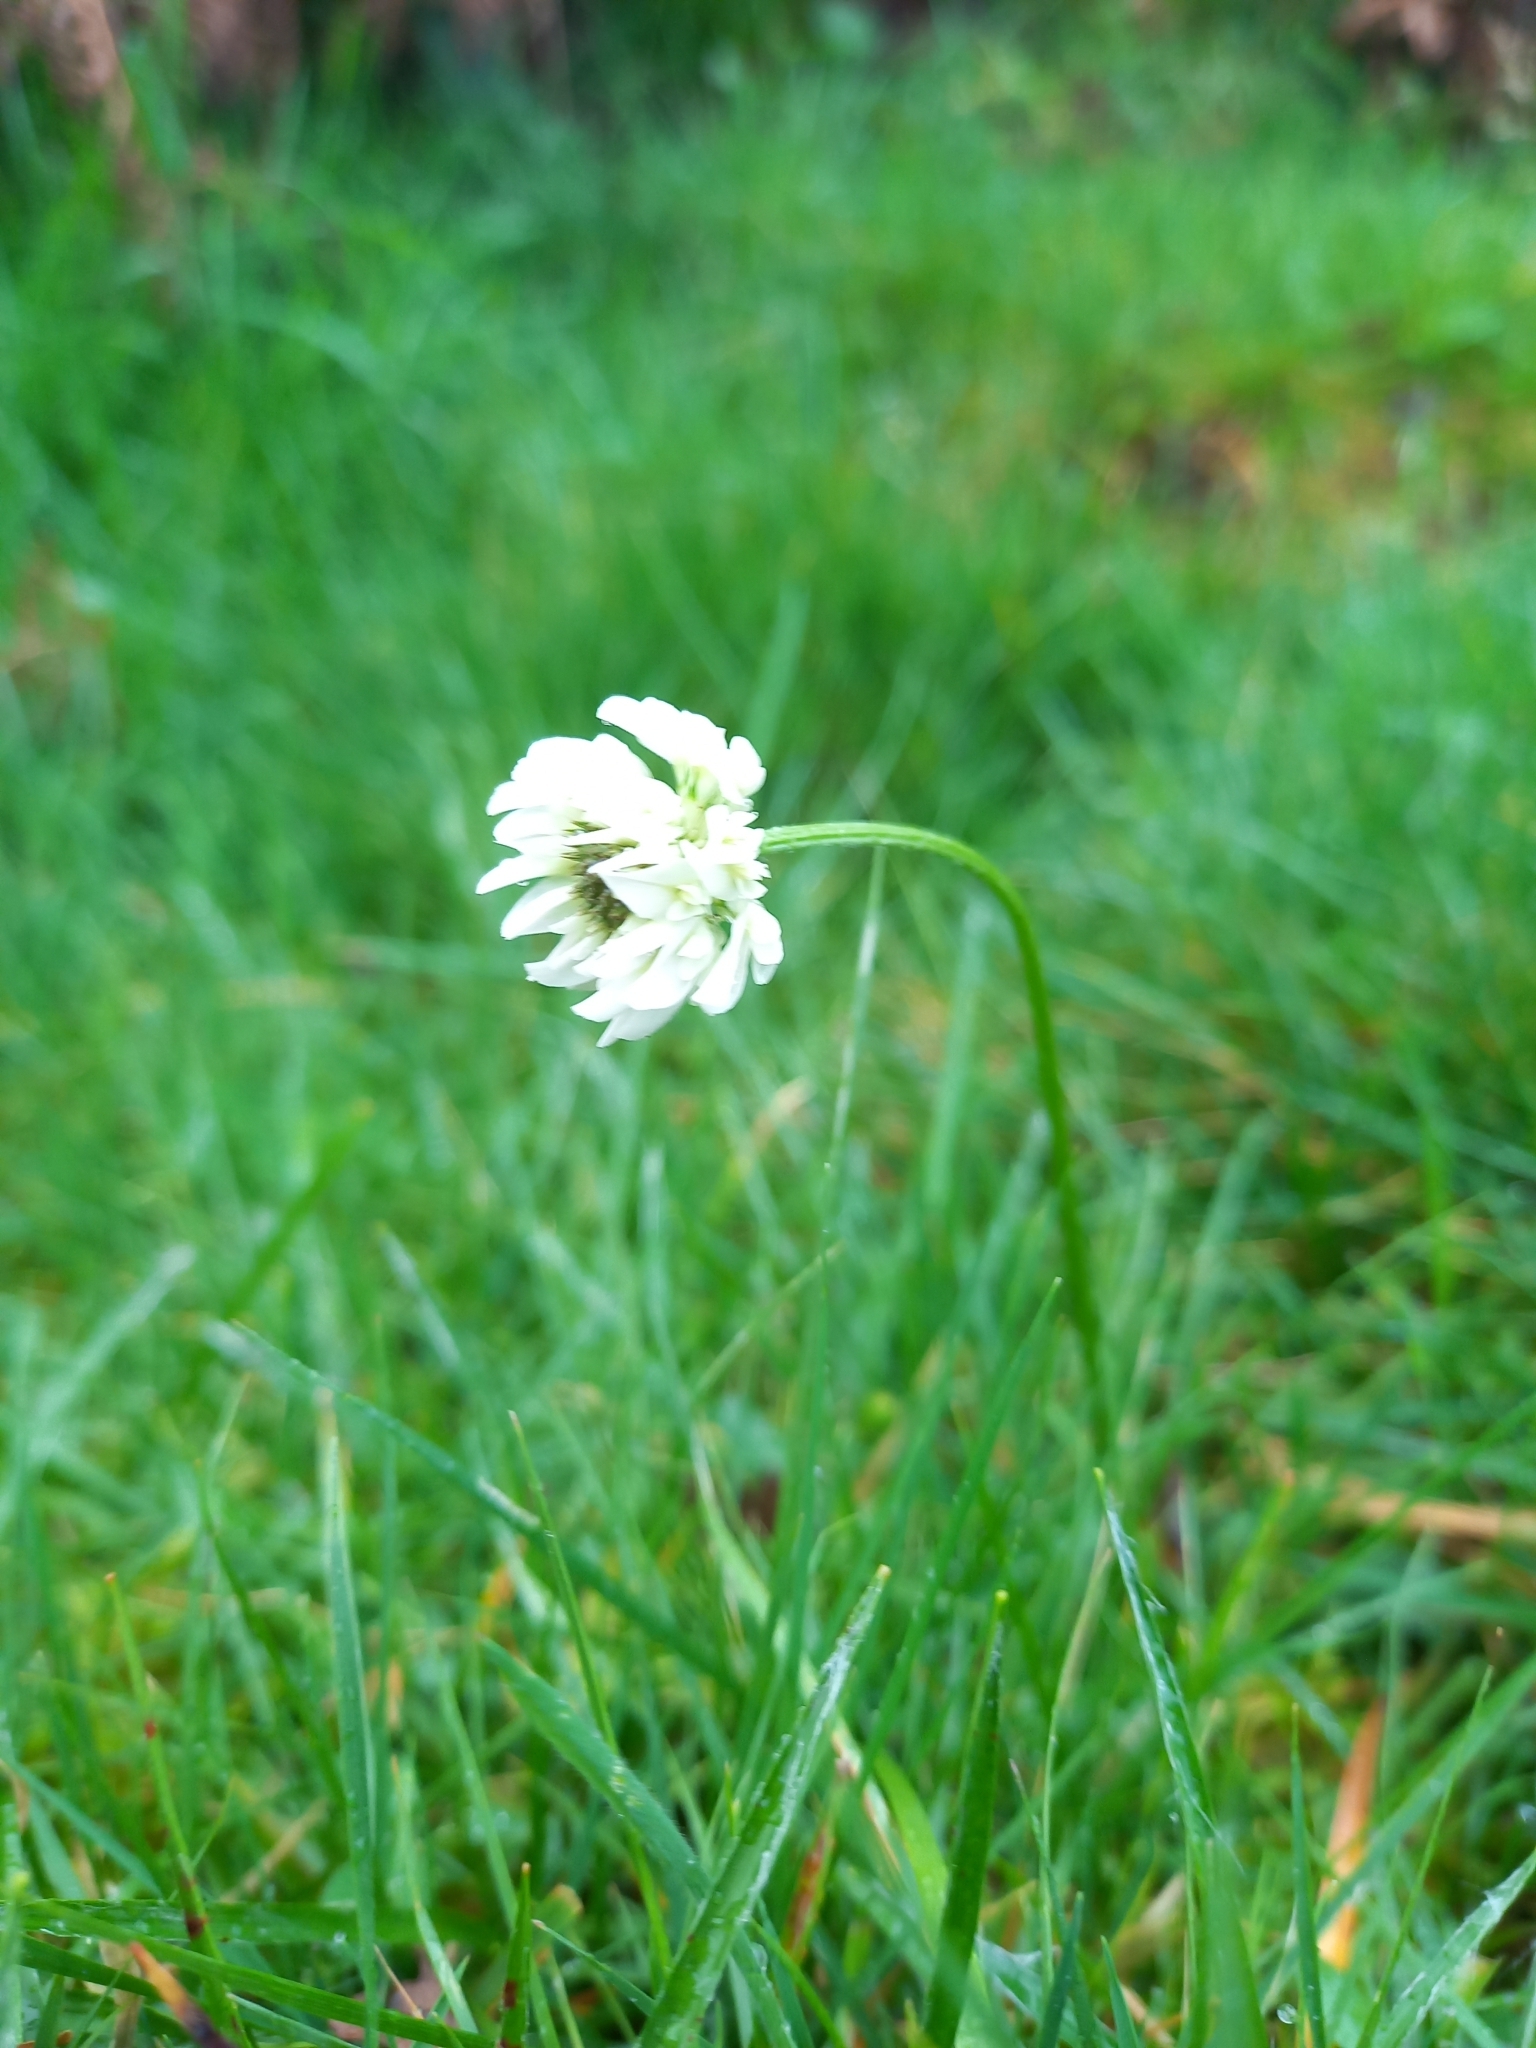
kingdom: Plantae
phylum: Tracheophyta
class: Magnoliopsida
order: Fabales
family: Fabaceae
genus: Trifolium
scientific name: Trifolium repens
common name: White clover
